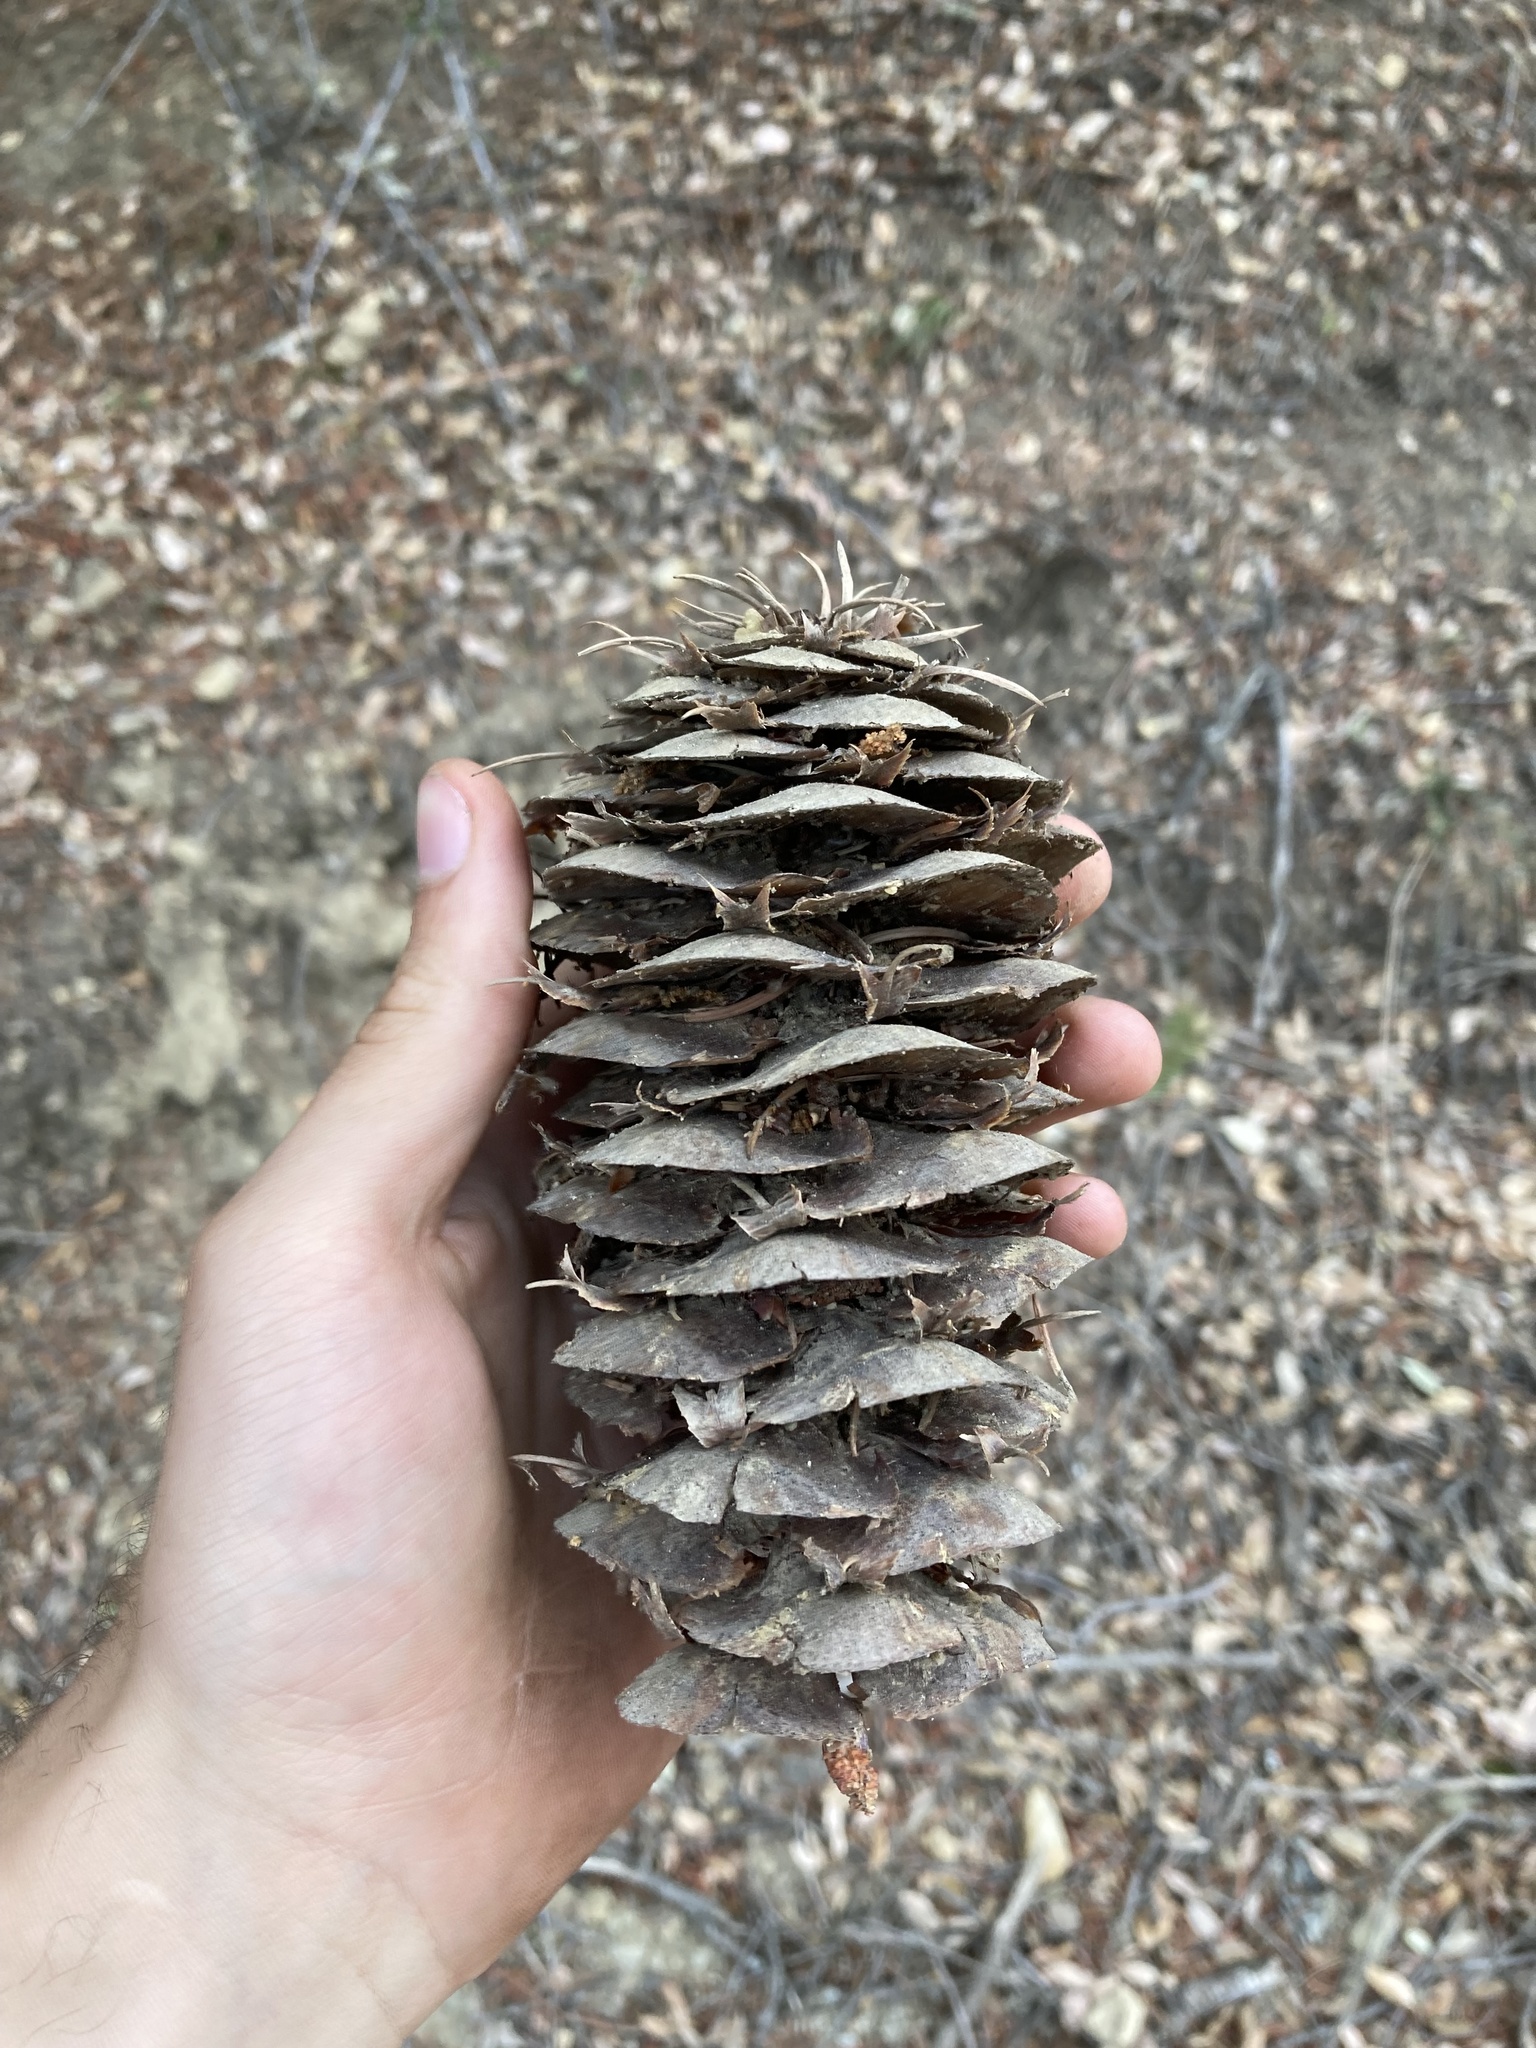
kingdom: Plantae
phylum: Tracheophyta
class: Pinopsida
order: Pinales
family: Pinaceae
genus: Pseudotsuga
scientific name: Pseudotsuga macrocarpa
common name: Big-cone douglas-fir
